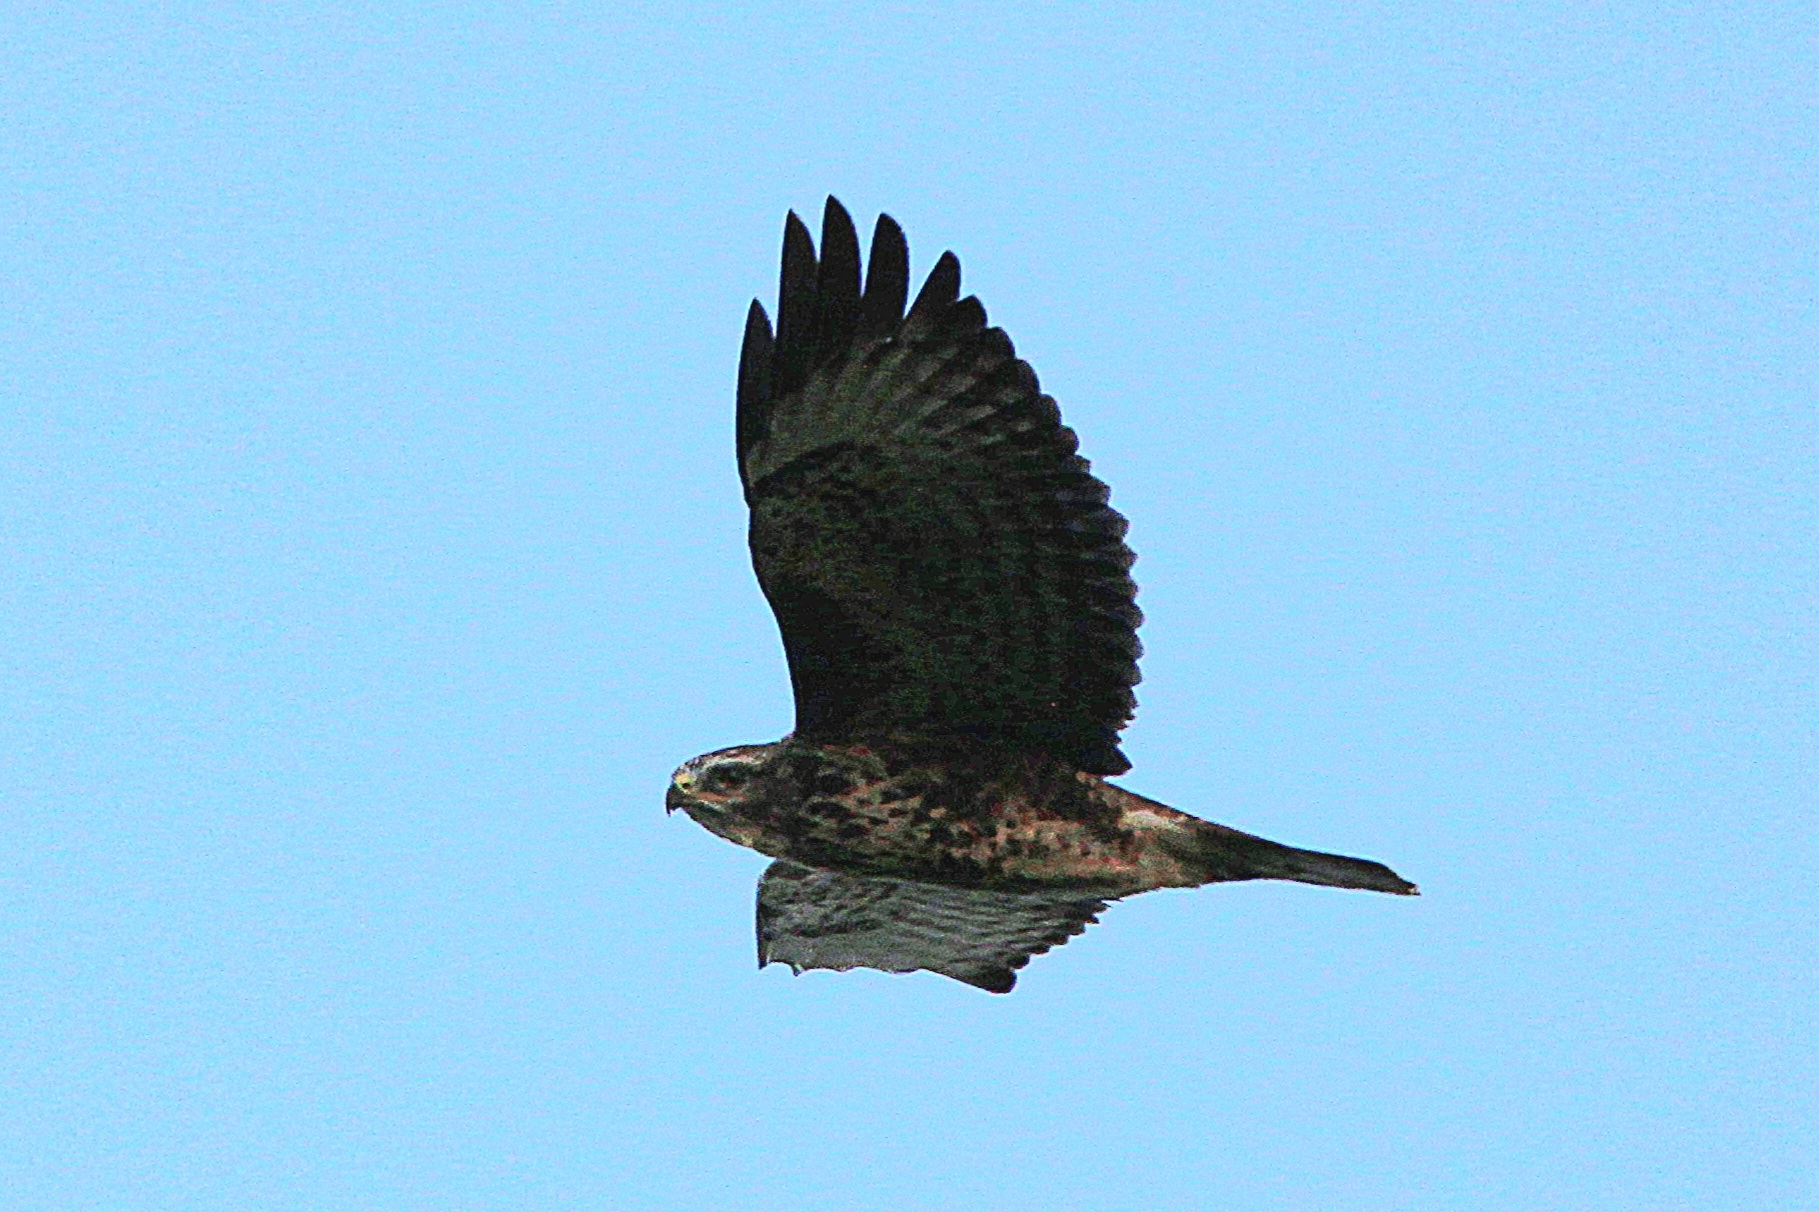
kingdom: Animalia
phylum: Chordata
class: Aves
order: Accipitriformes
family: Accipitridae
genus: Buteo
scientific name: Buteo buteo
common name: Common buzzard
